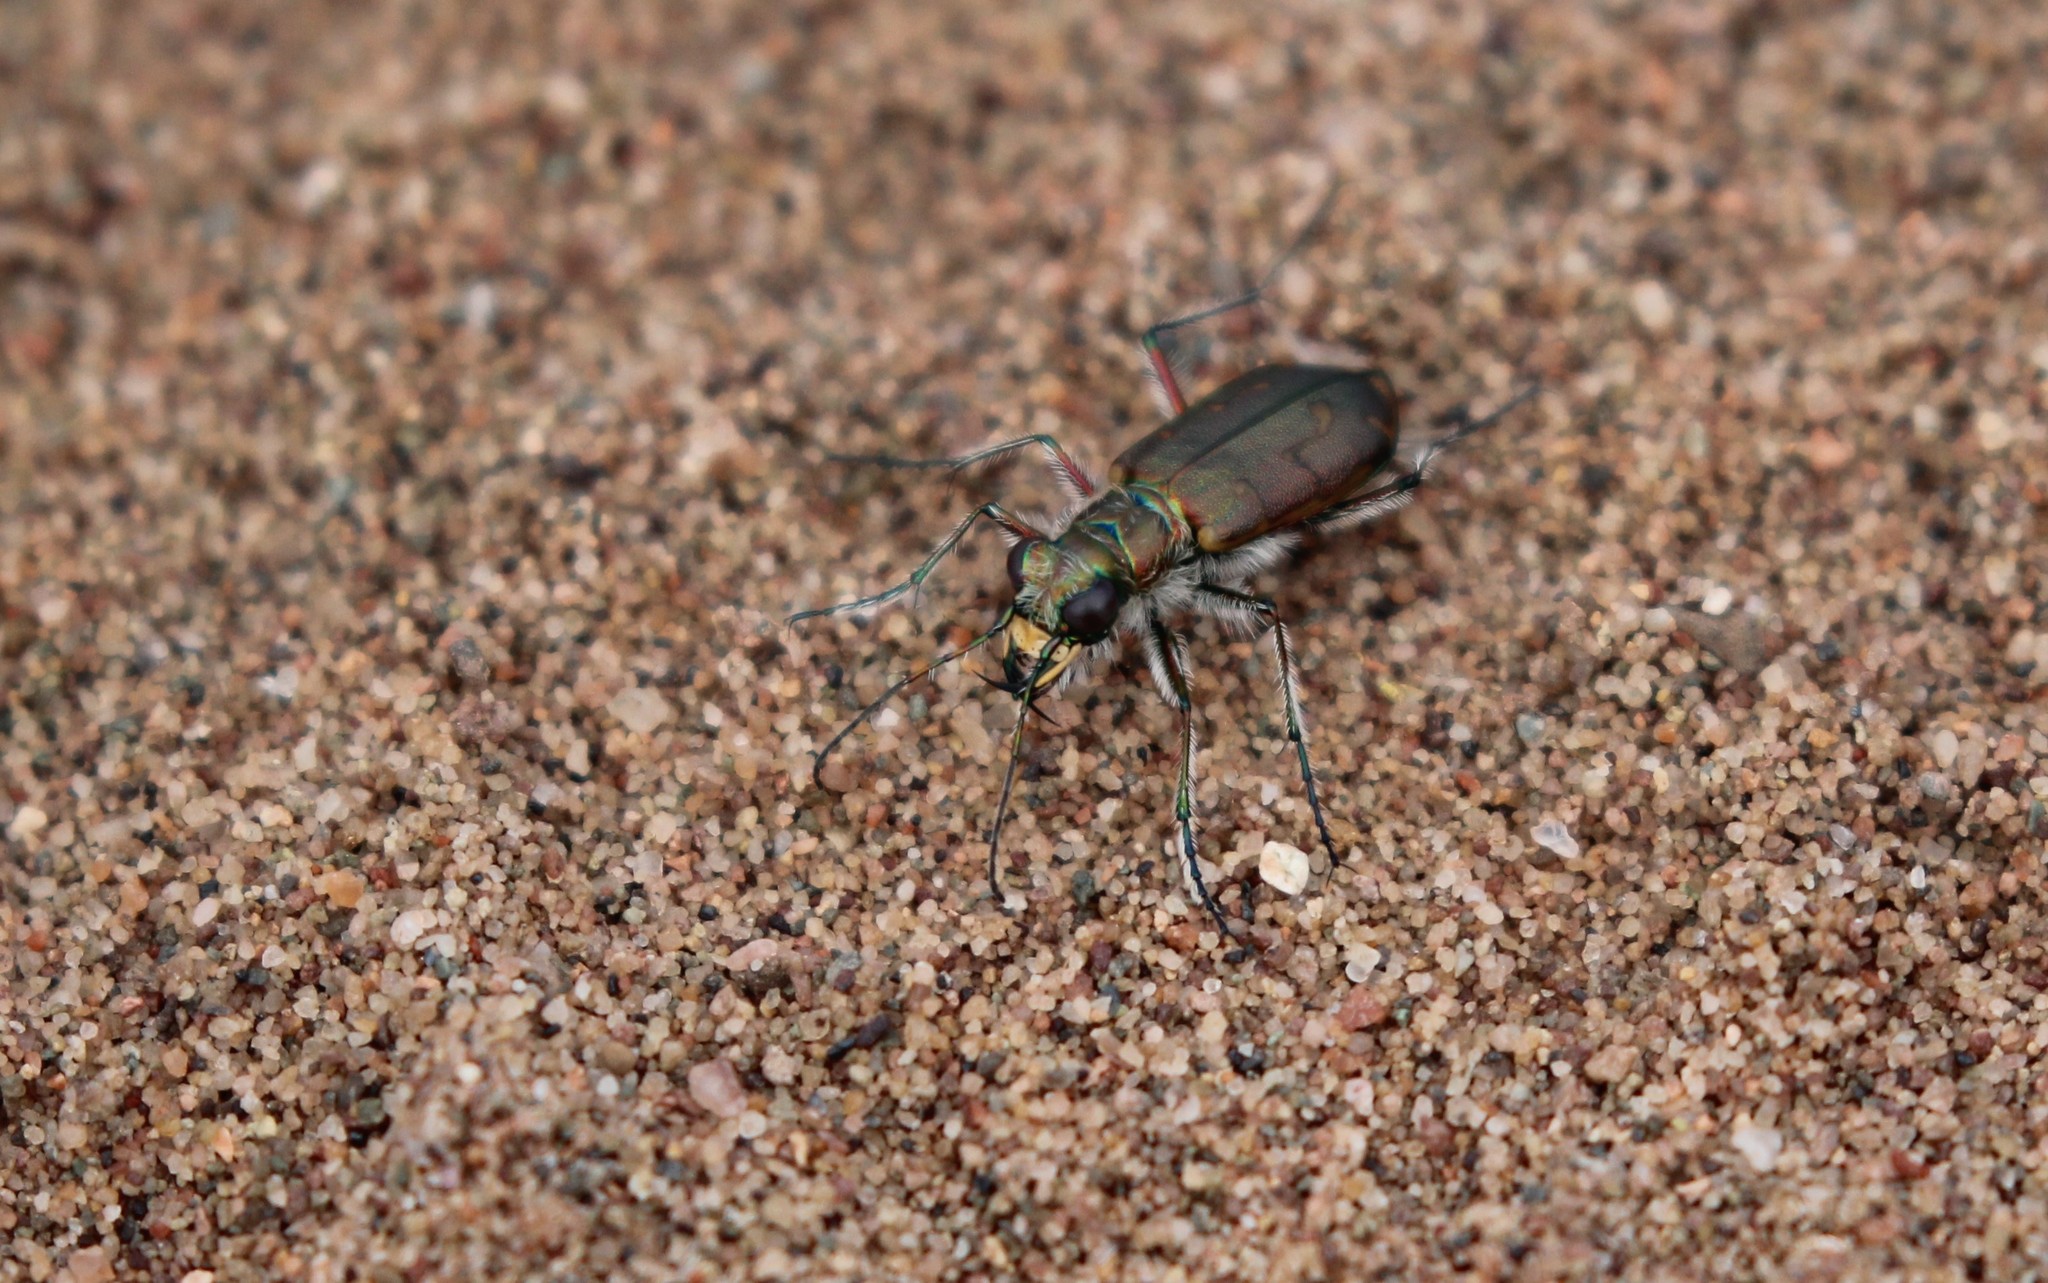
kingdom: Animalia
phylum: Arthropoda
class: Insecta
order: Coleoptera
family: Carabidae
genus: Cicindela
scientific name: Cicindela hirticollis
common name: Hairy-necked tiger beetle
